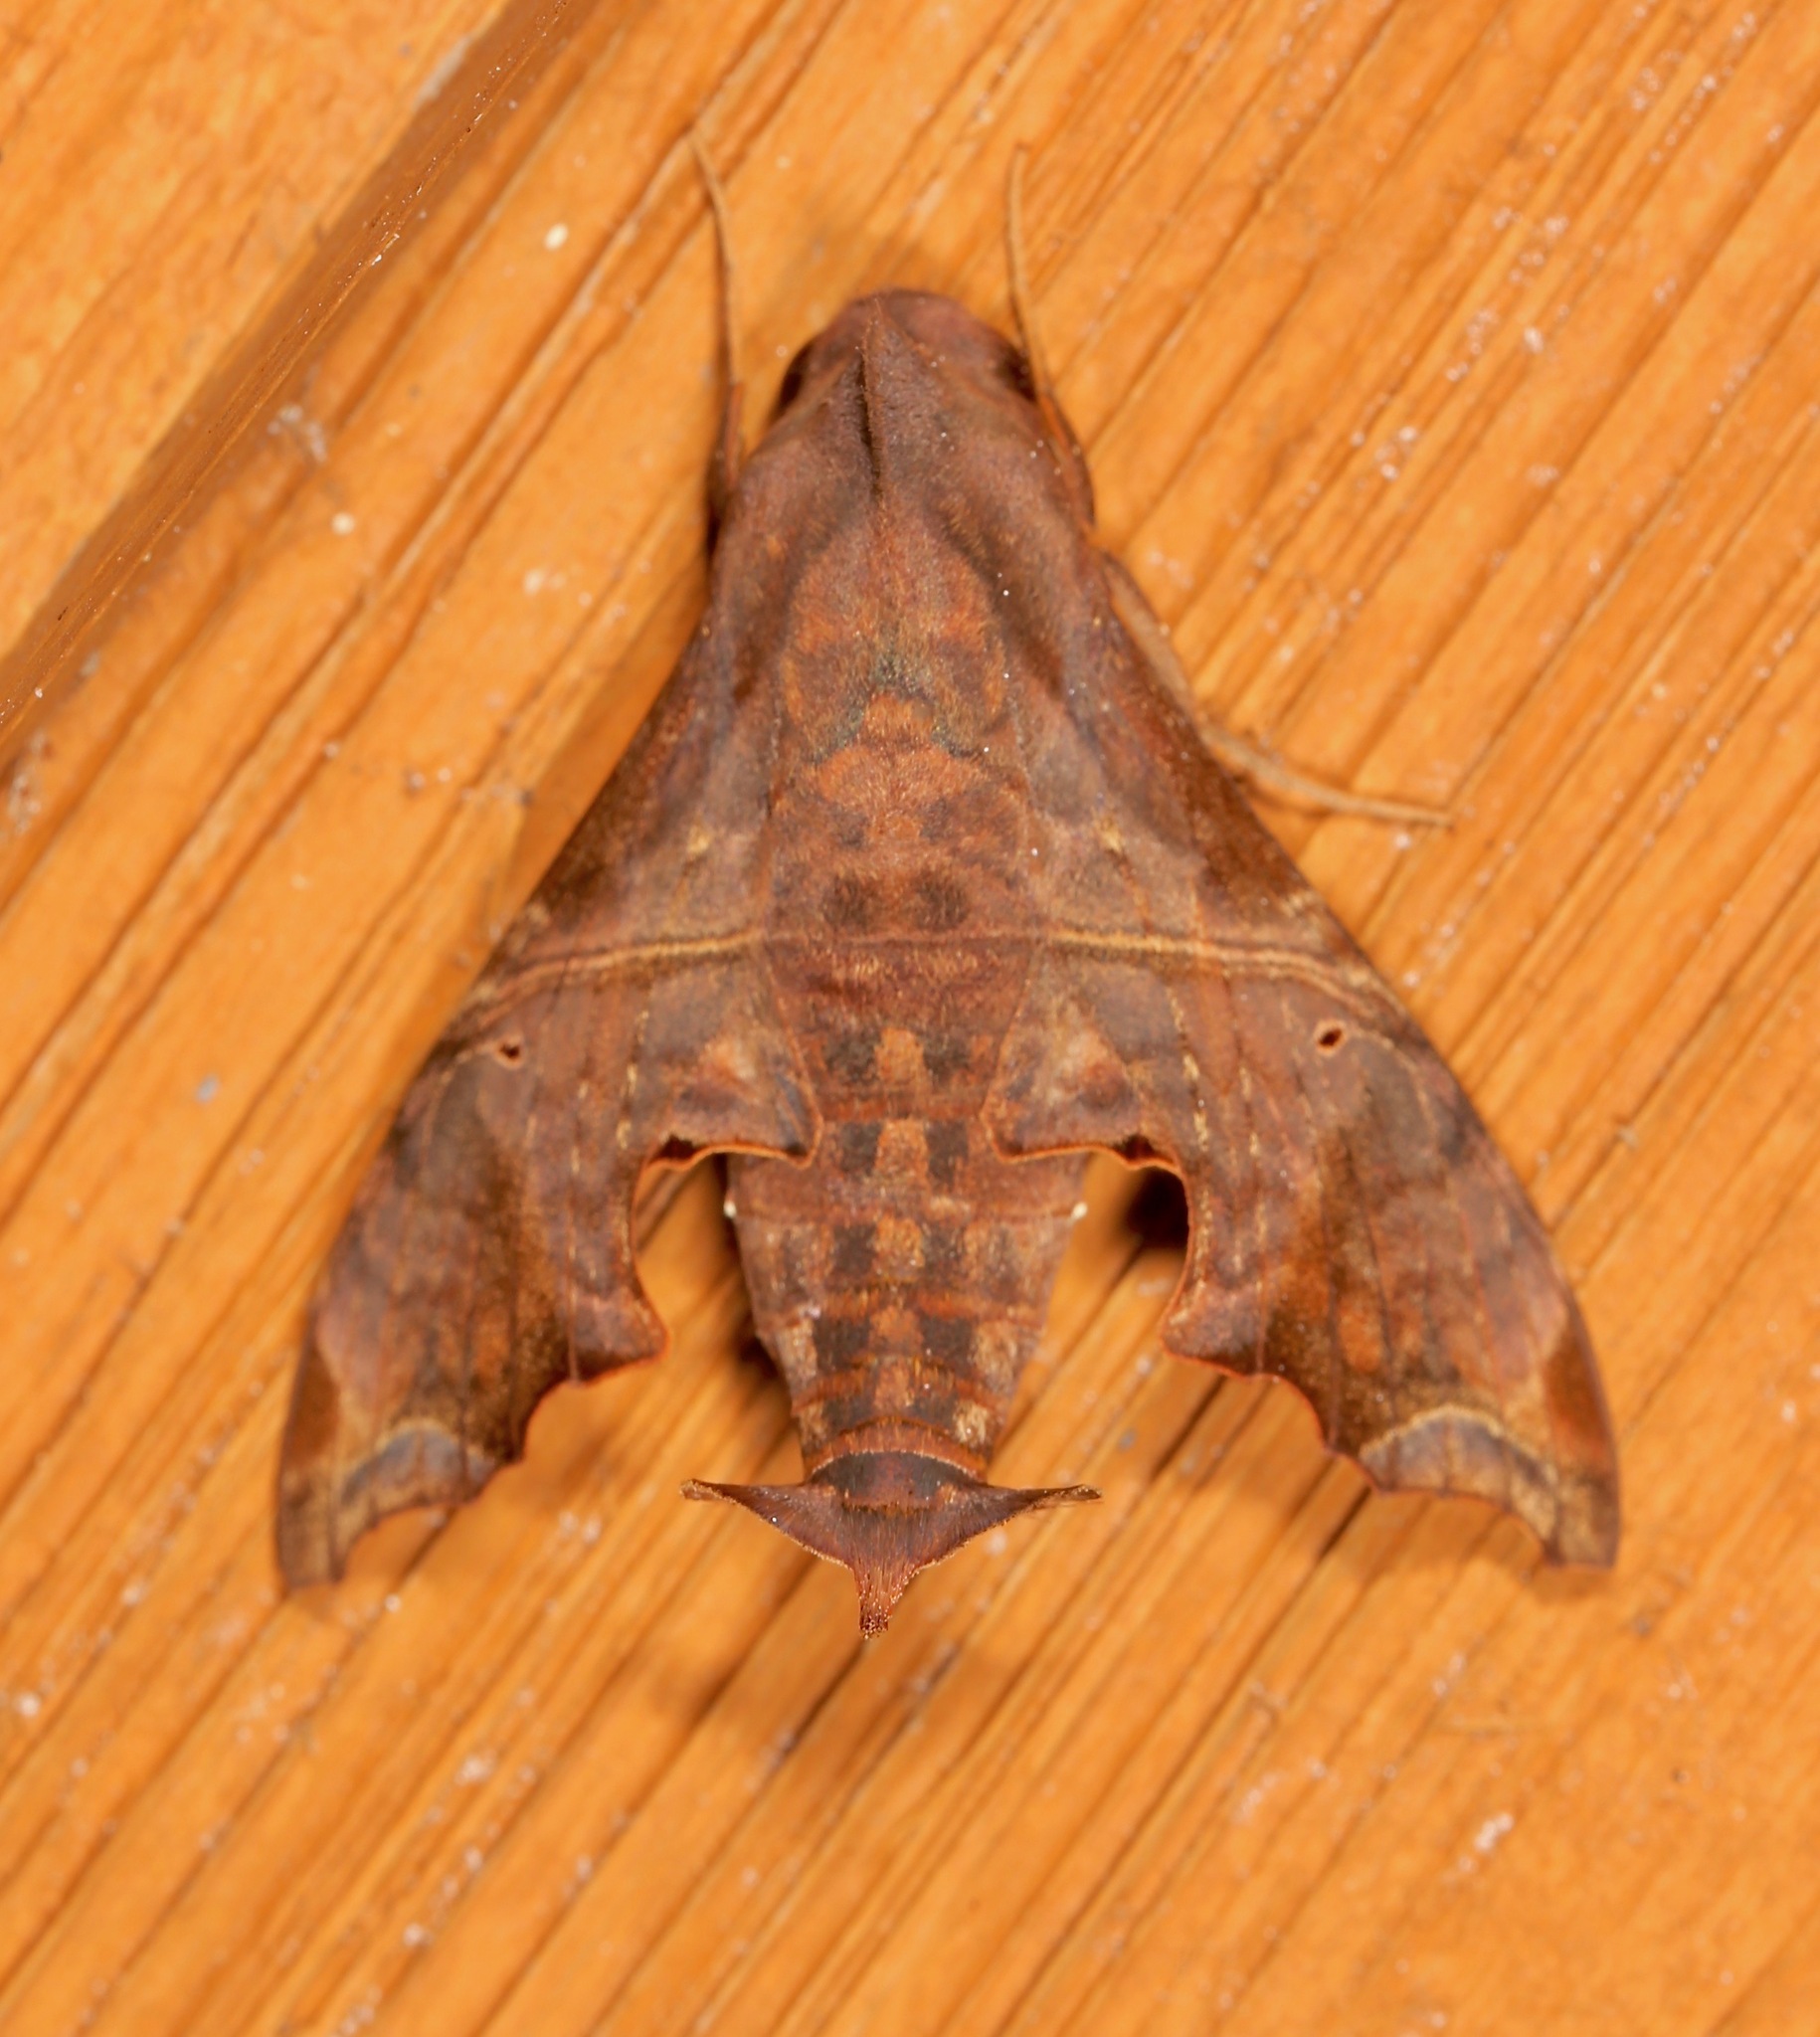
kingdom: Animalia
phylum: Arthropoda
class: Insecta
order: Lepidoptera
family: Sphingidae
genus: Enyo
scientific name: Enyo lugubris
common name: Mournful sphinx
